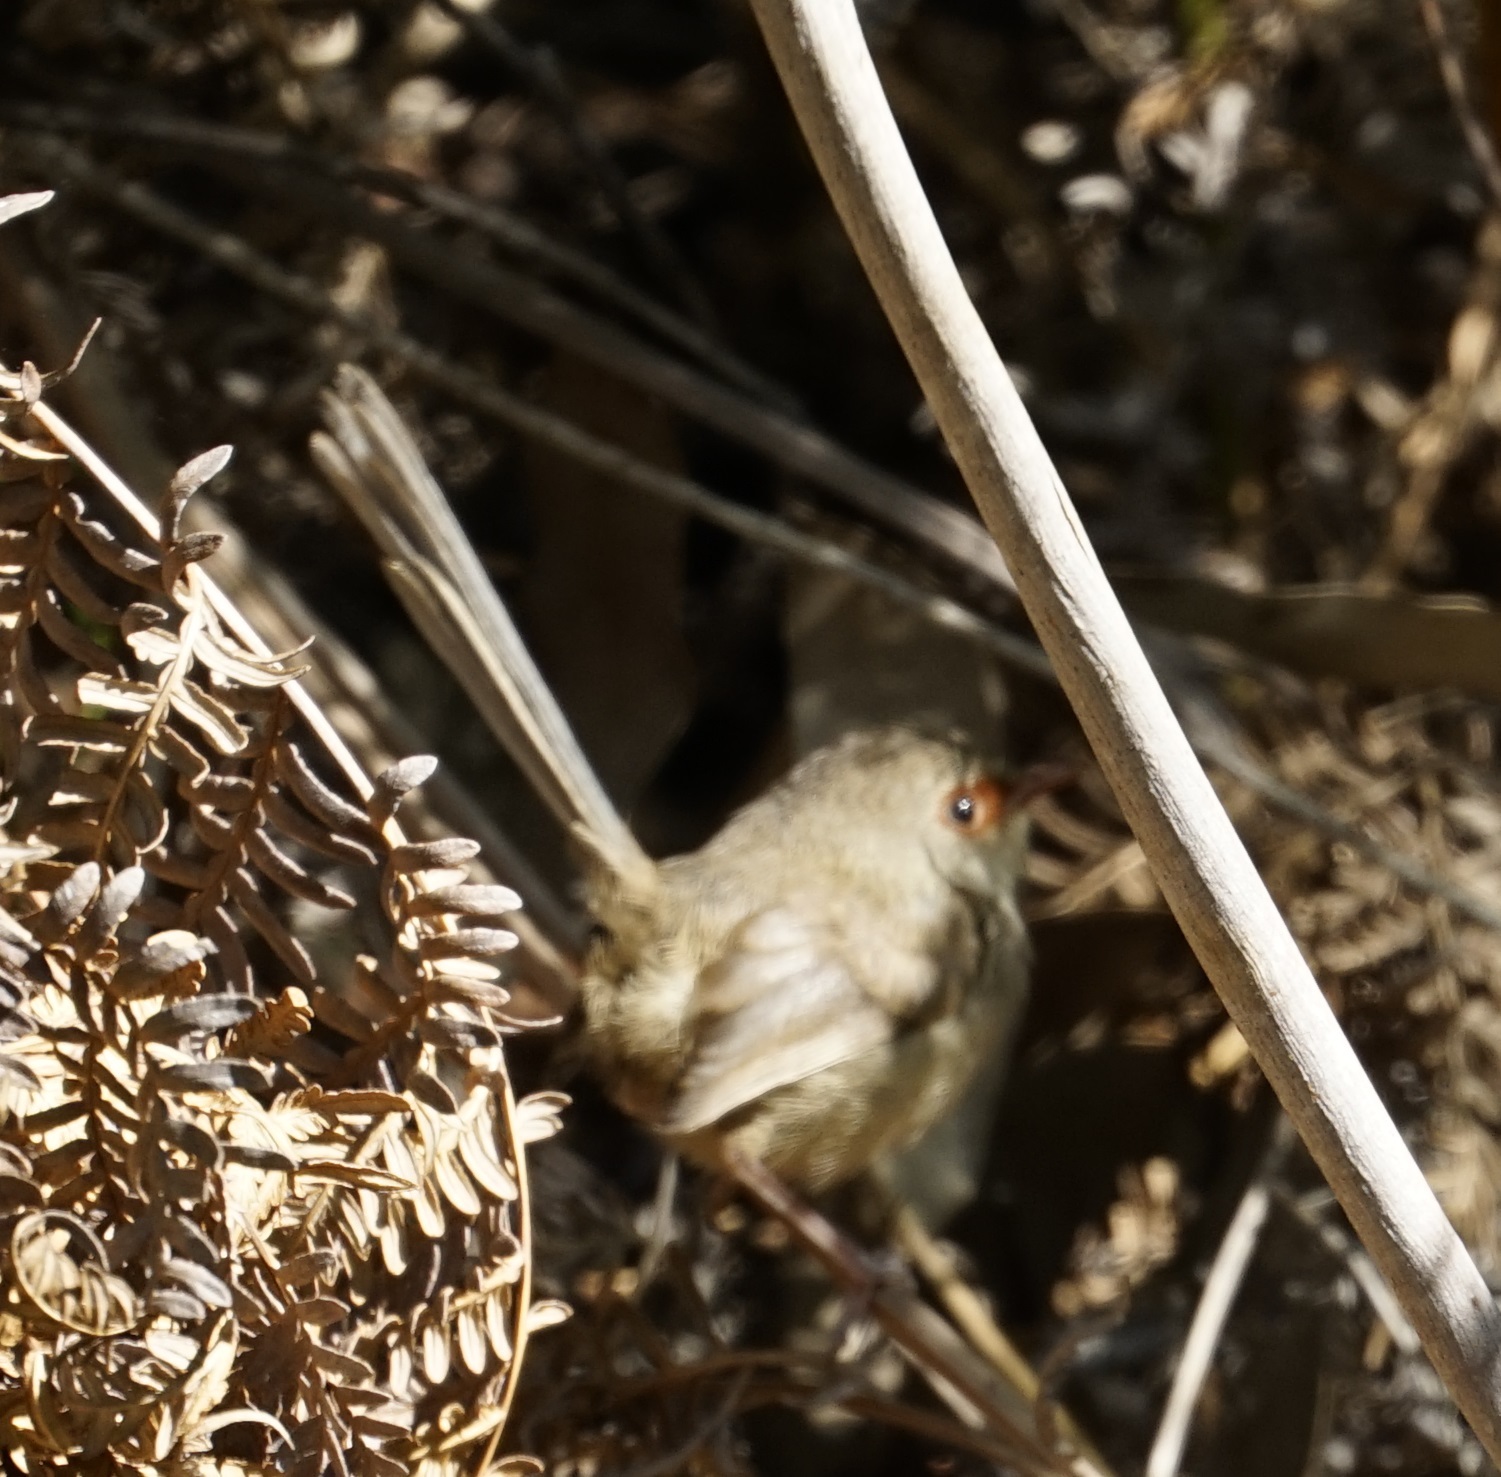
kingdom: Animalia
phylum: Chordata
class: Aves
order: Passeriformes
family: Maluridae
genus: Malurus
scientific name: Malurus lamberti
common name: Variegated fairywren
